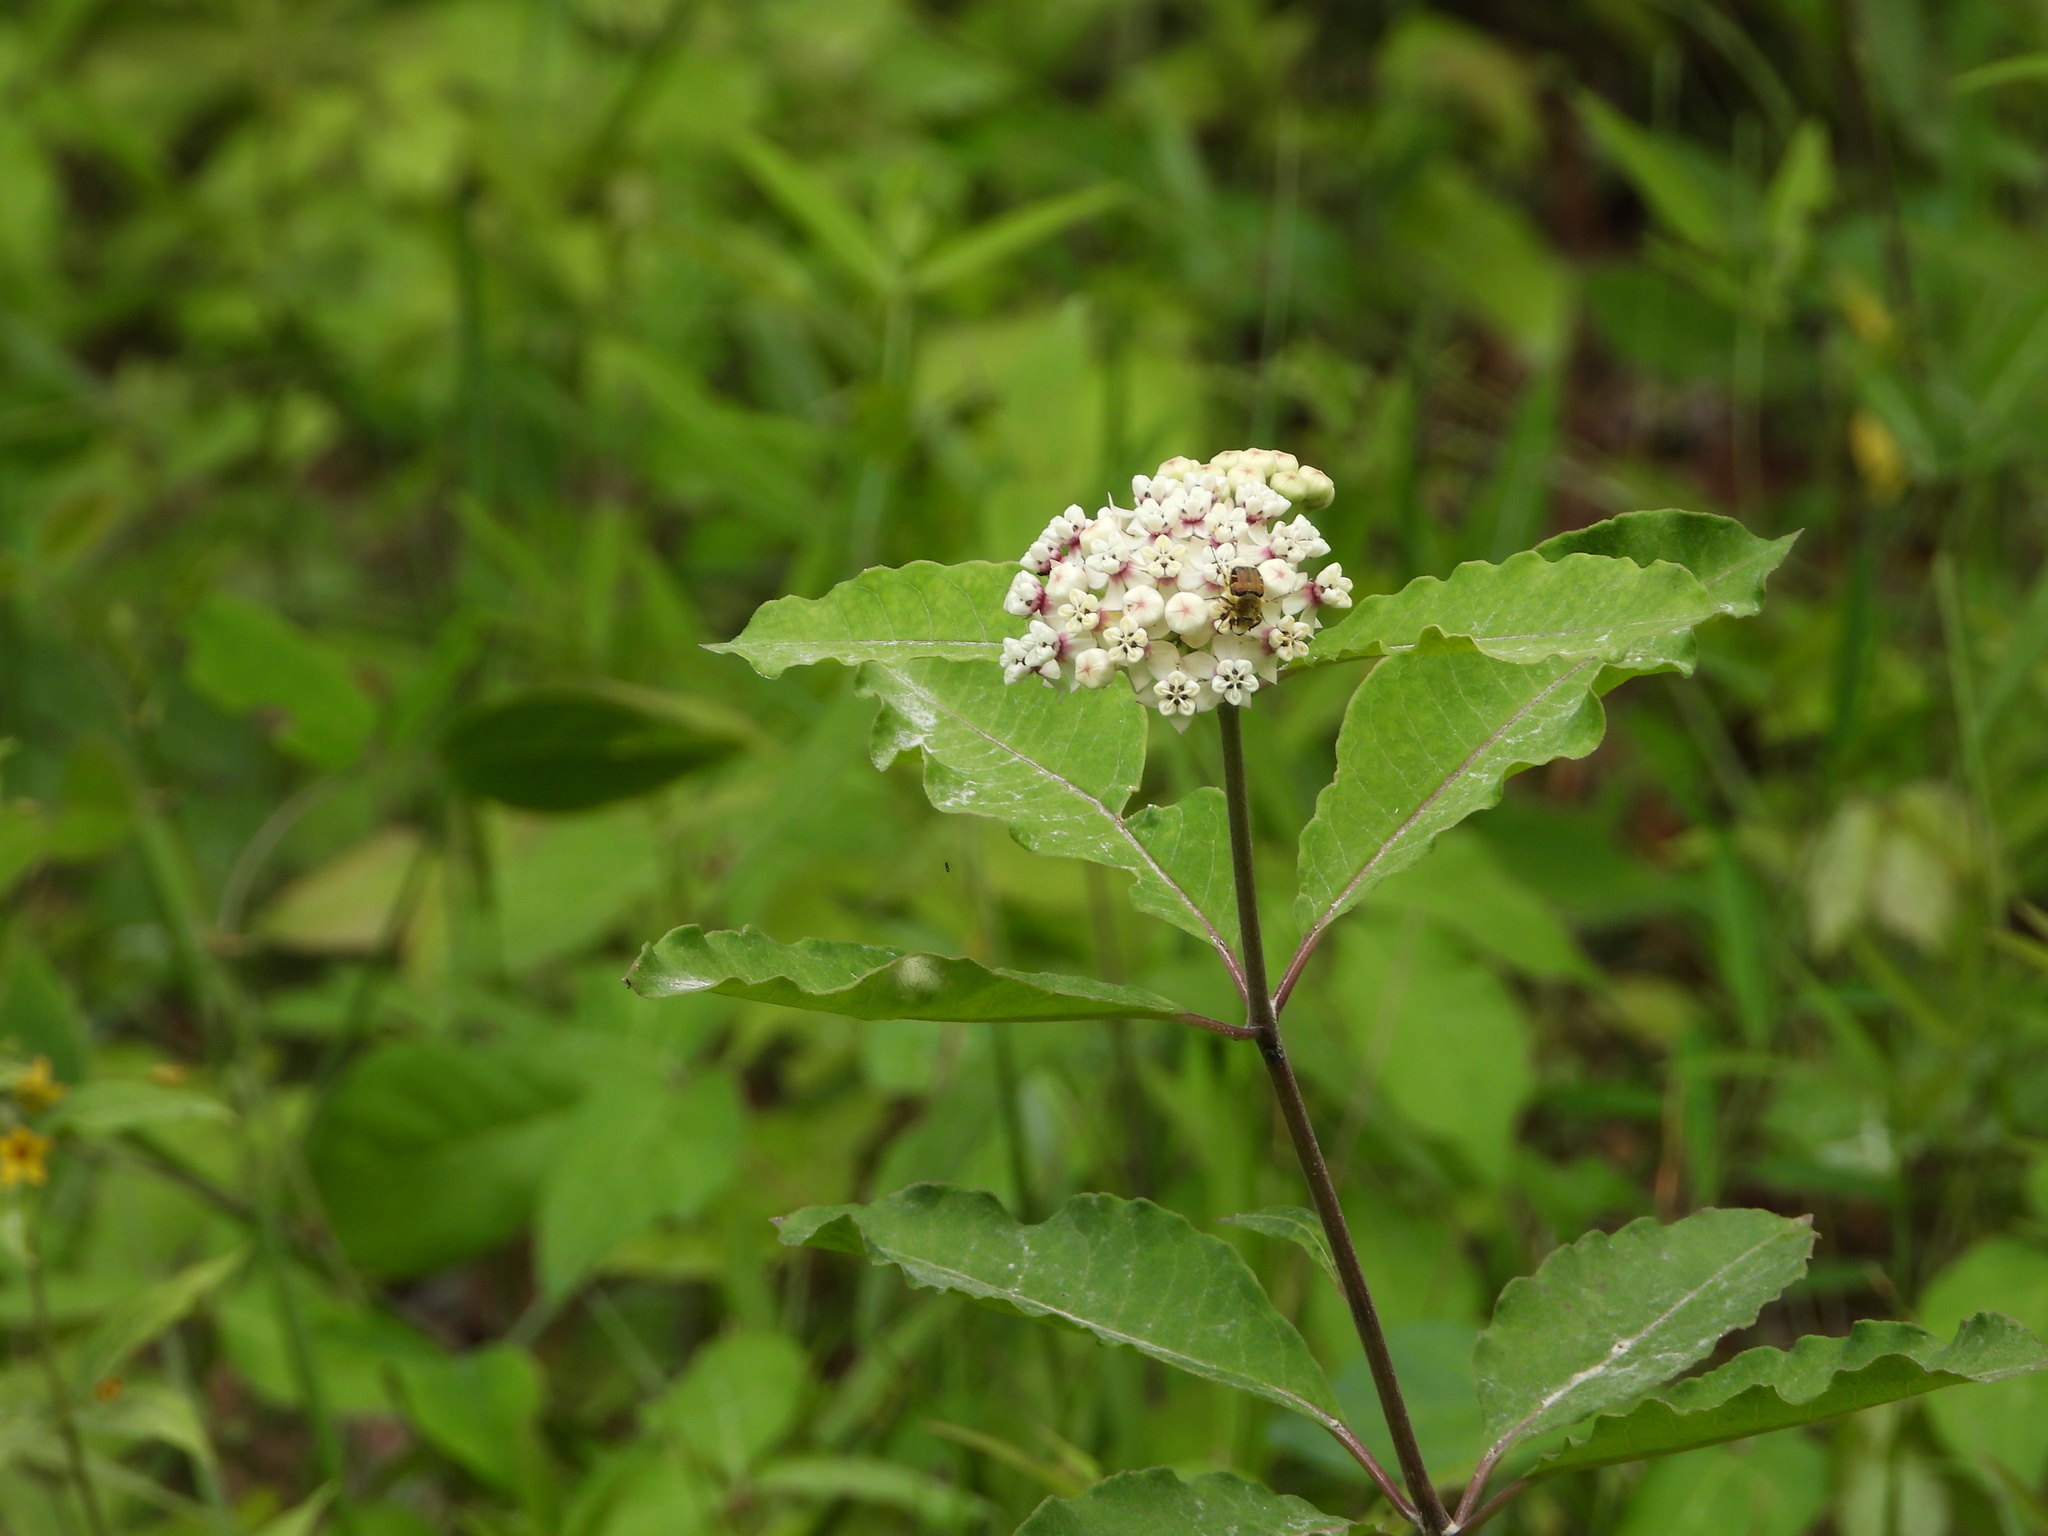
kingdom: Plantae
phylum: Tracheophyta
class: Magnoliopsida
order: Gentianales
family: Apocynaceae
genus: Asclepias
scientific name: Asclepias variegata
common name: Variegated milkweed
